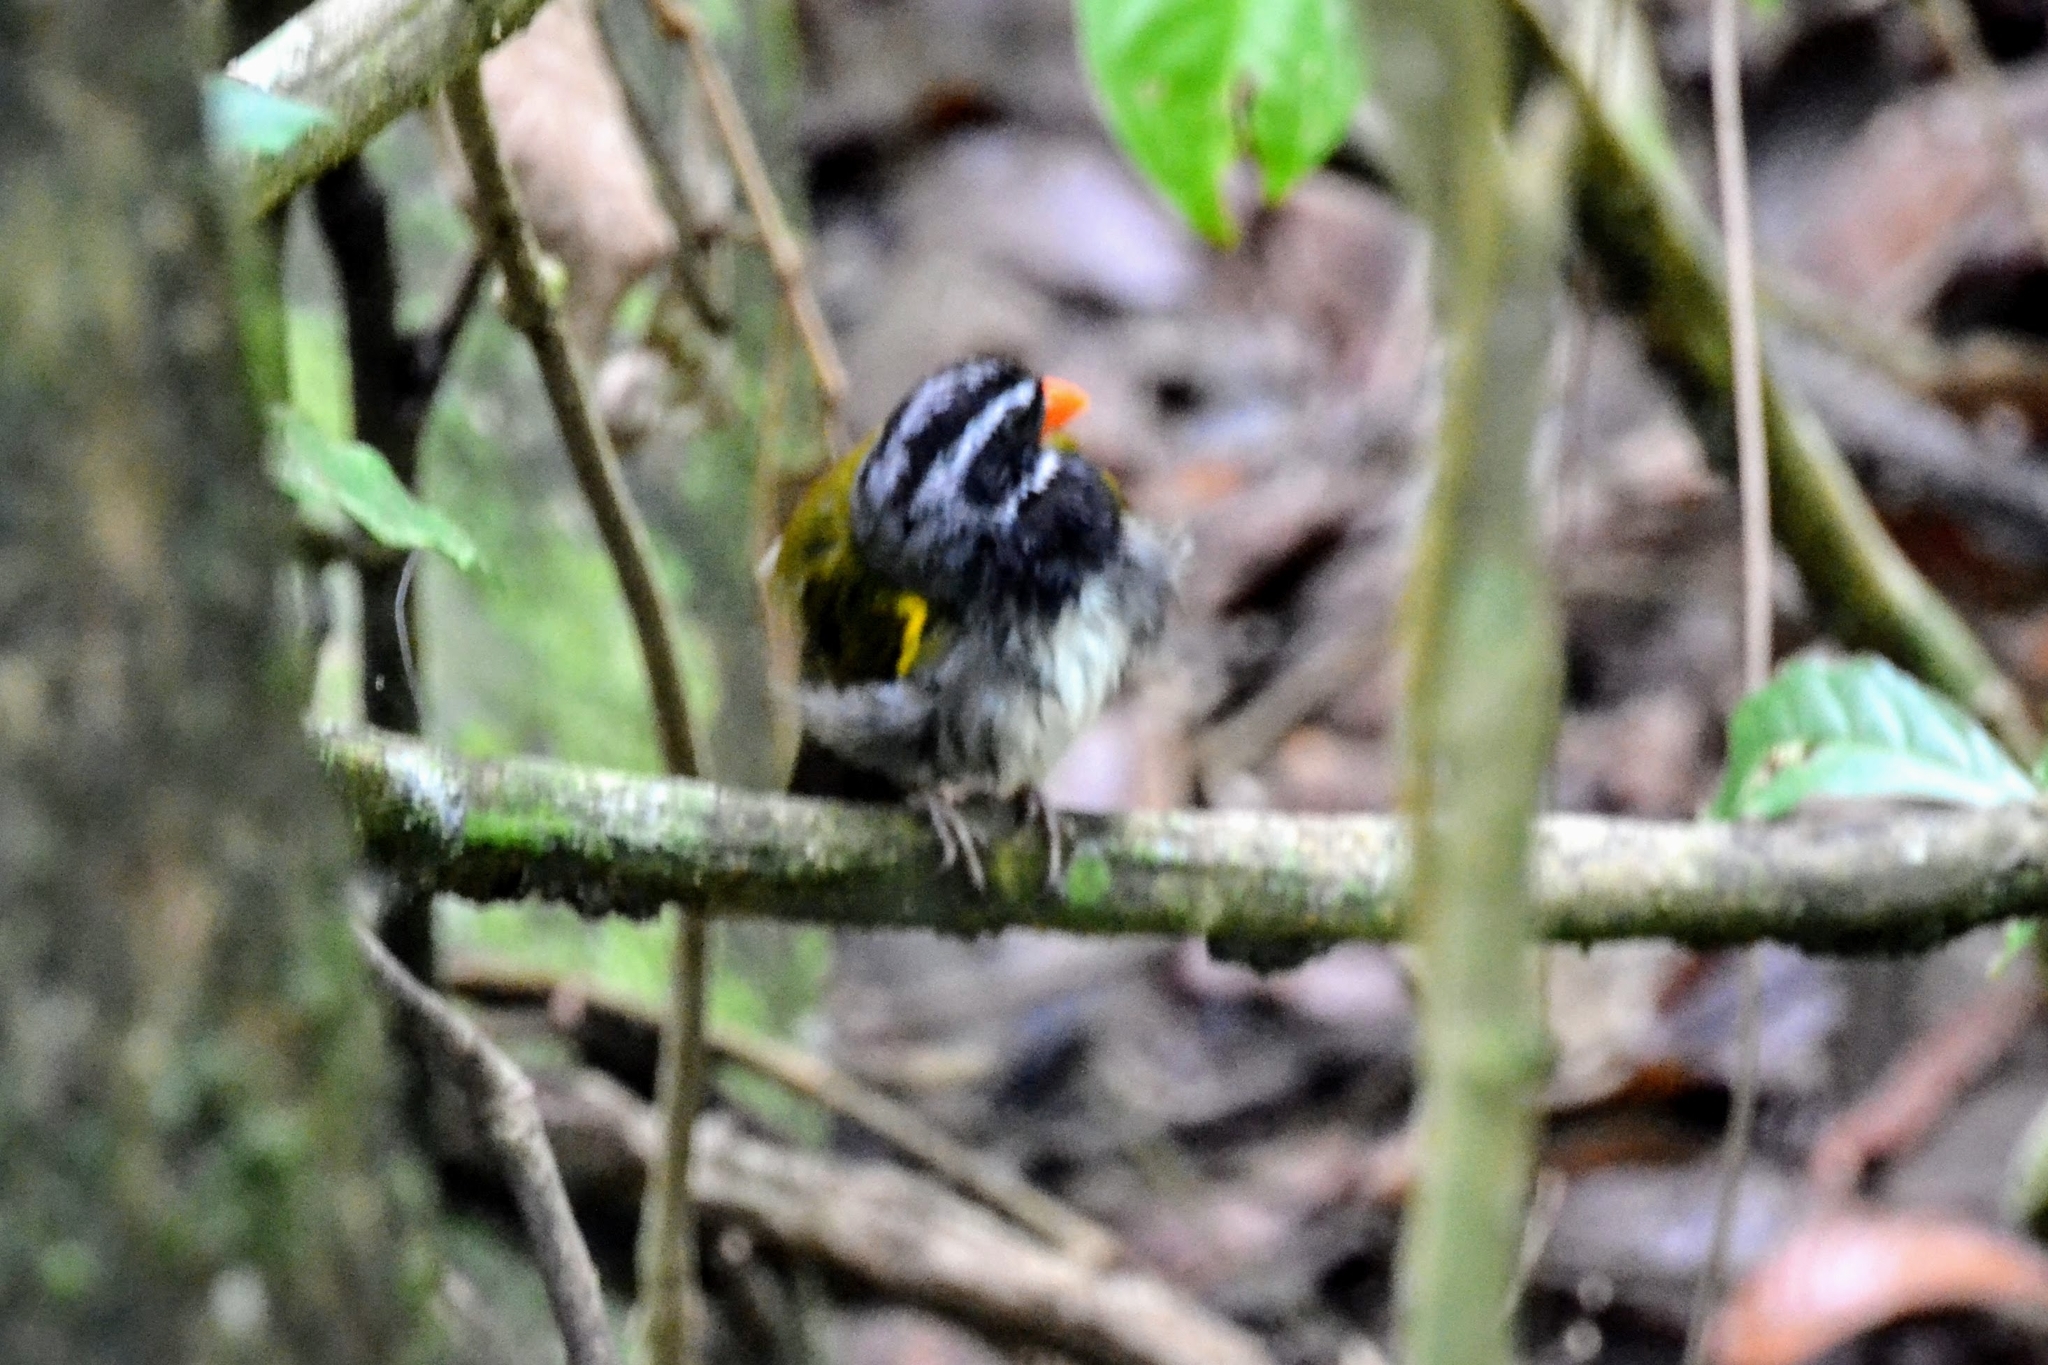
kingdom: Animalia
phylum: Chordata
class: Aves
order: Passeriformes
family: Passerellidae
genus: Arremon
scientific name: Arremon aurantiirostris
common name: Orange-billed sparrow
